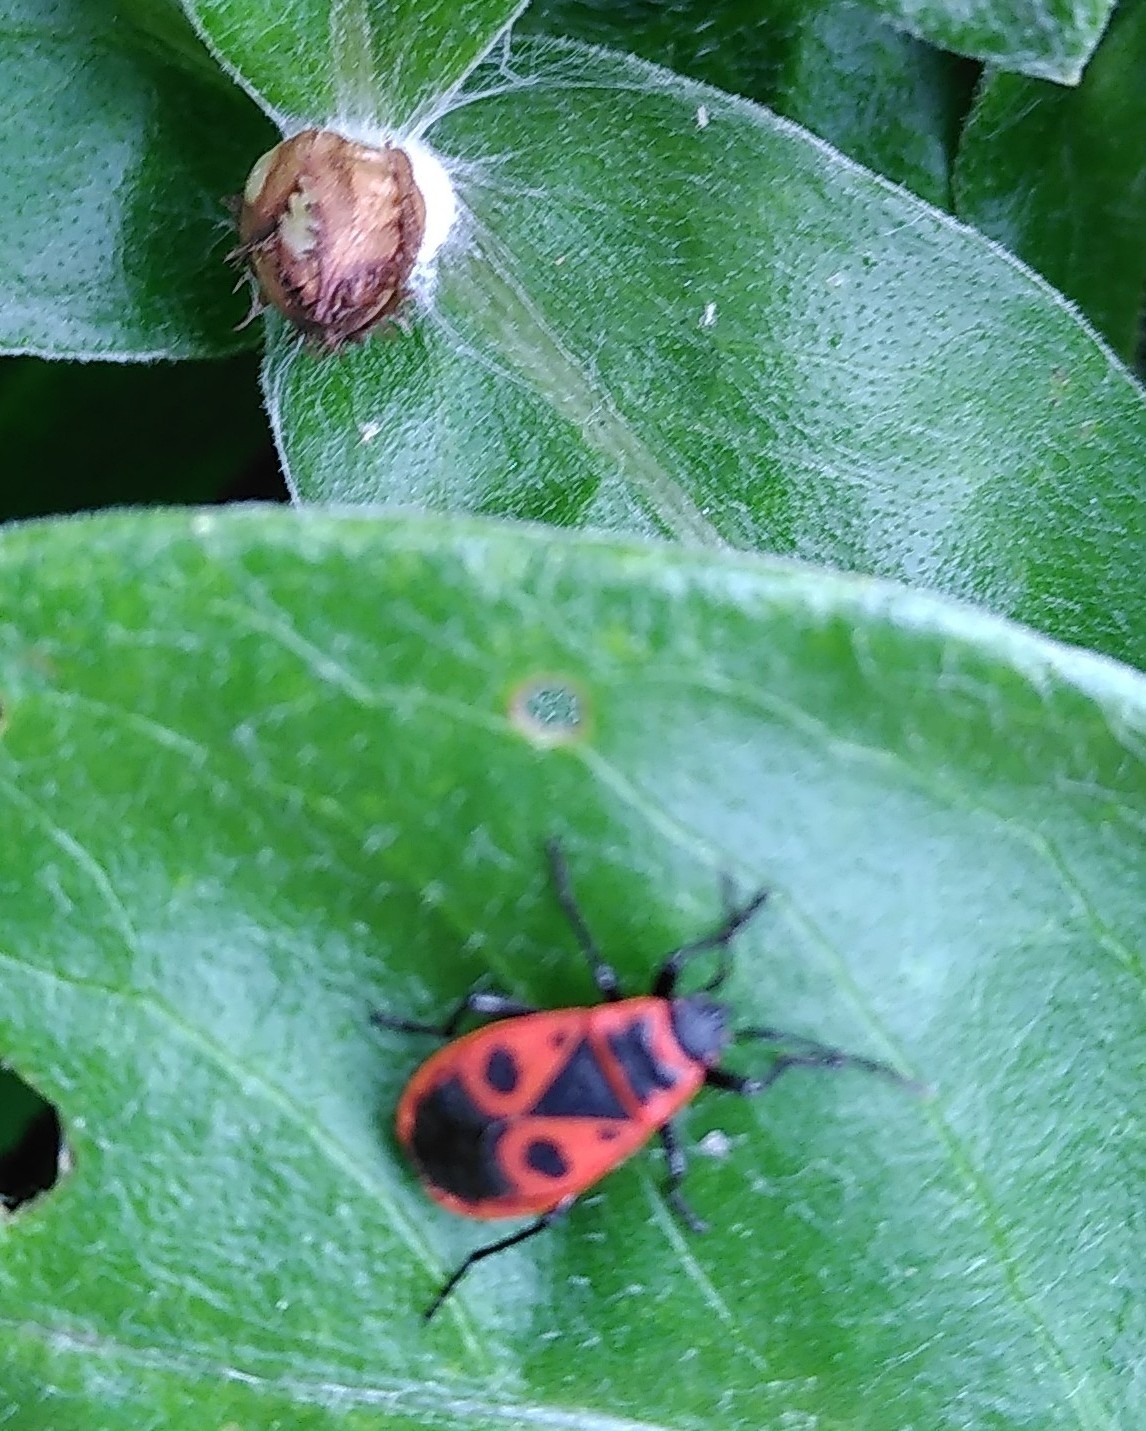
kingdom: Animalia
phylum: Arthropoda
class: Insecta
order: Hemiptera
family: Pyrrhocoridae
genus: Pyrrhocoris
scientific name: Pyrrhocoris apterus
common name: Firebug
